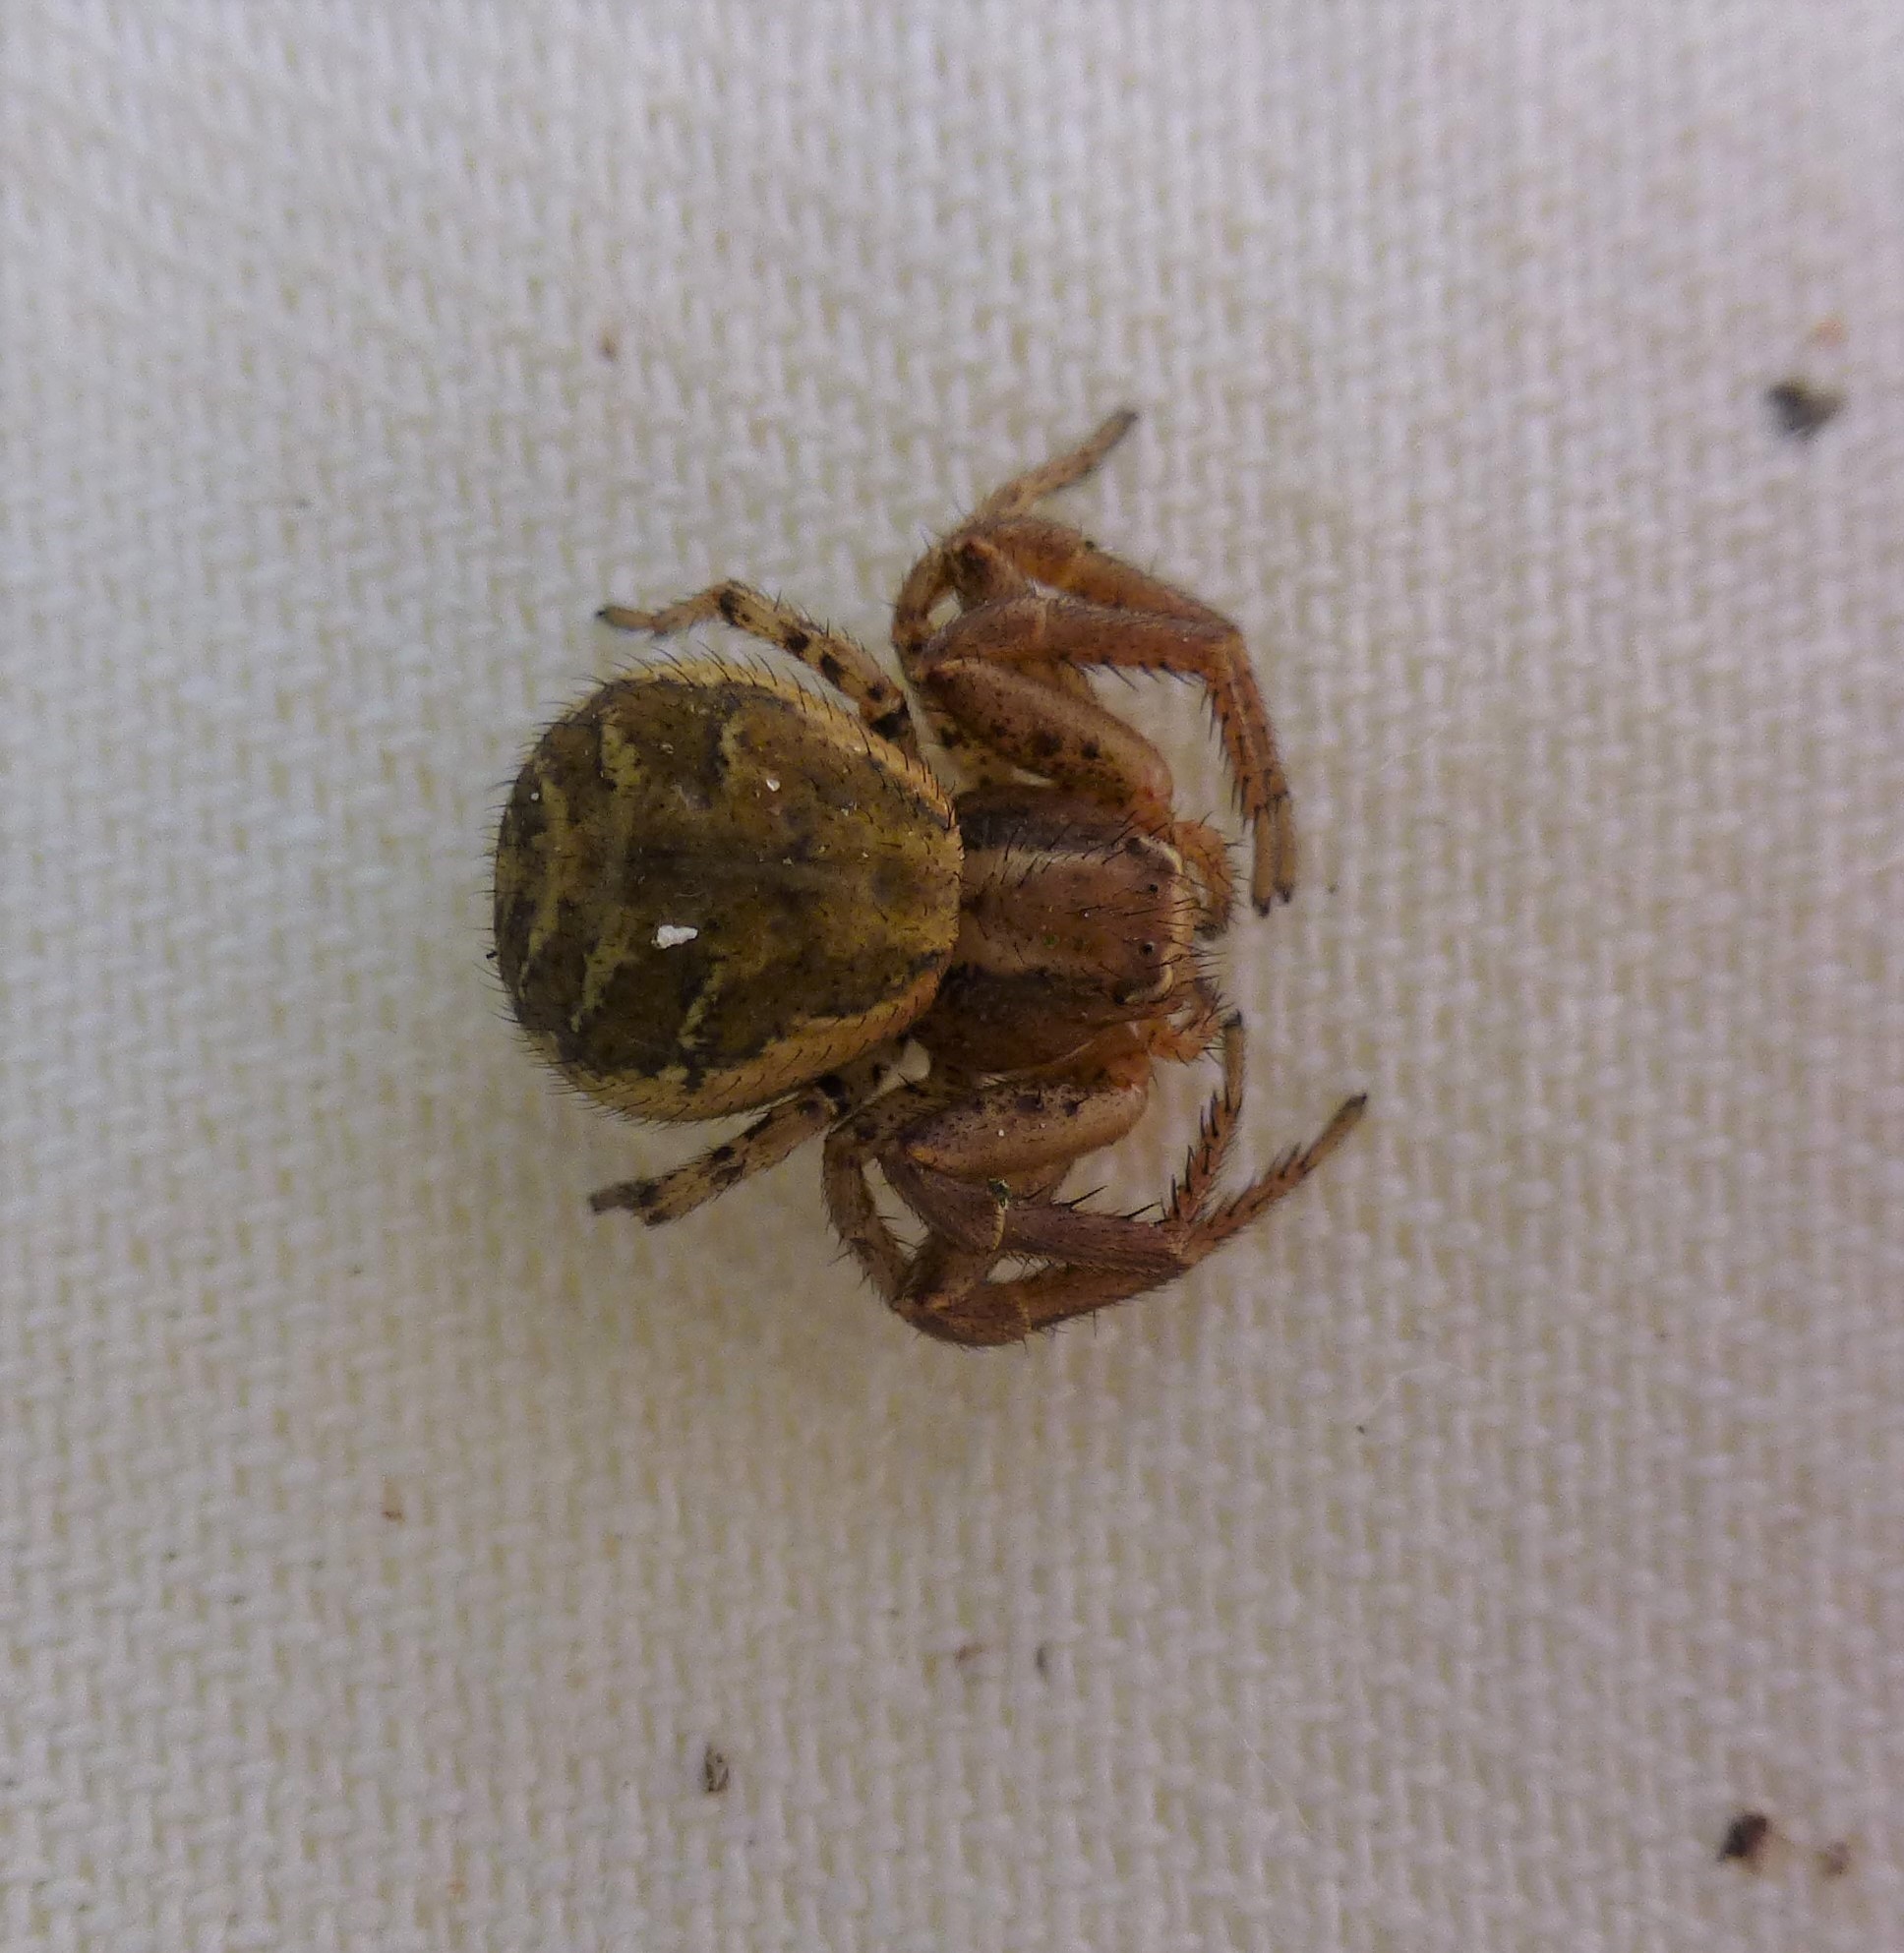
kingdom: Animalia
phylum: Arthropoda
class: Arachnida
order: Araneae
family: Thomisidae
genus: Xysticus
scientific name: Xysticus kochi
